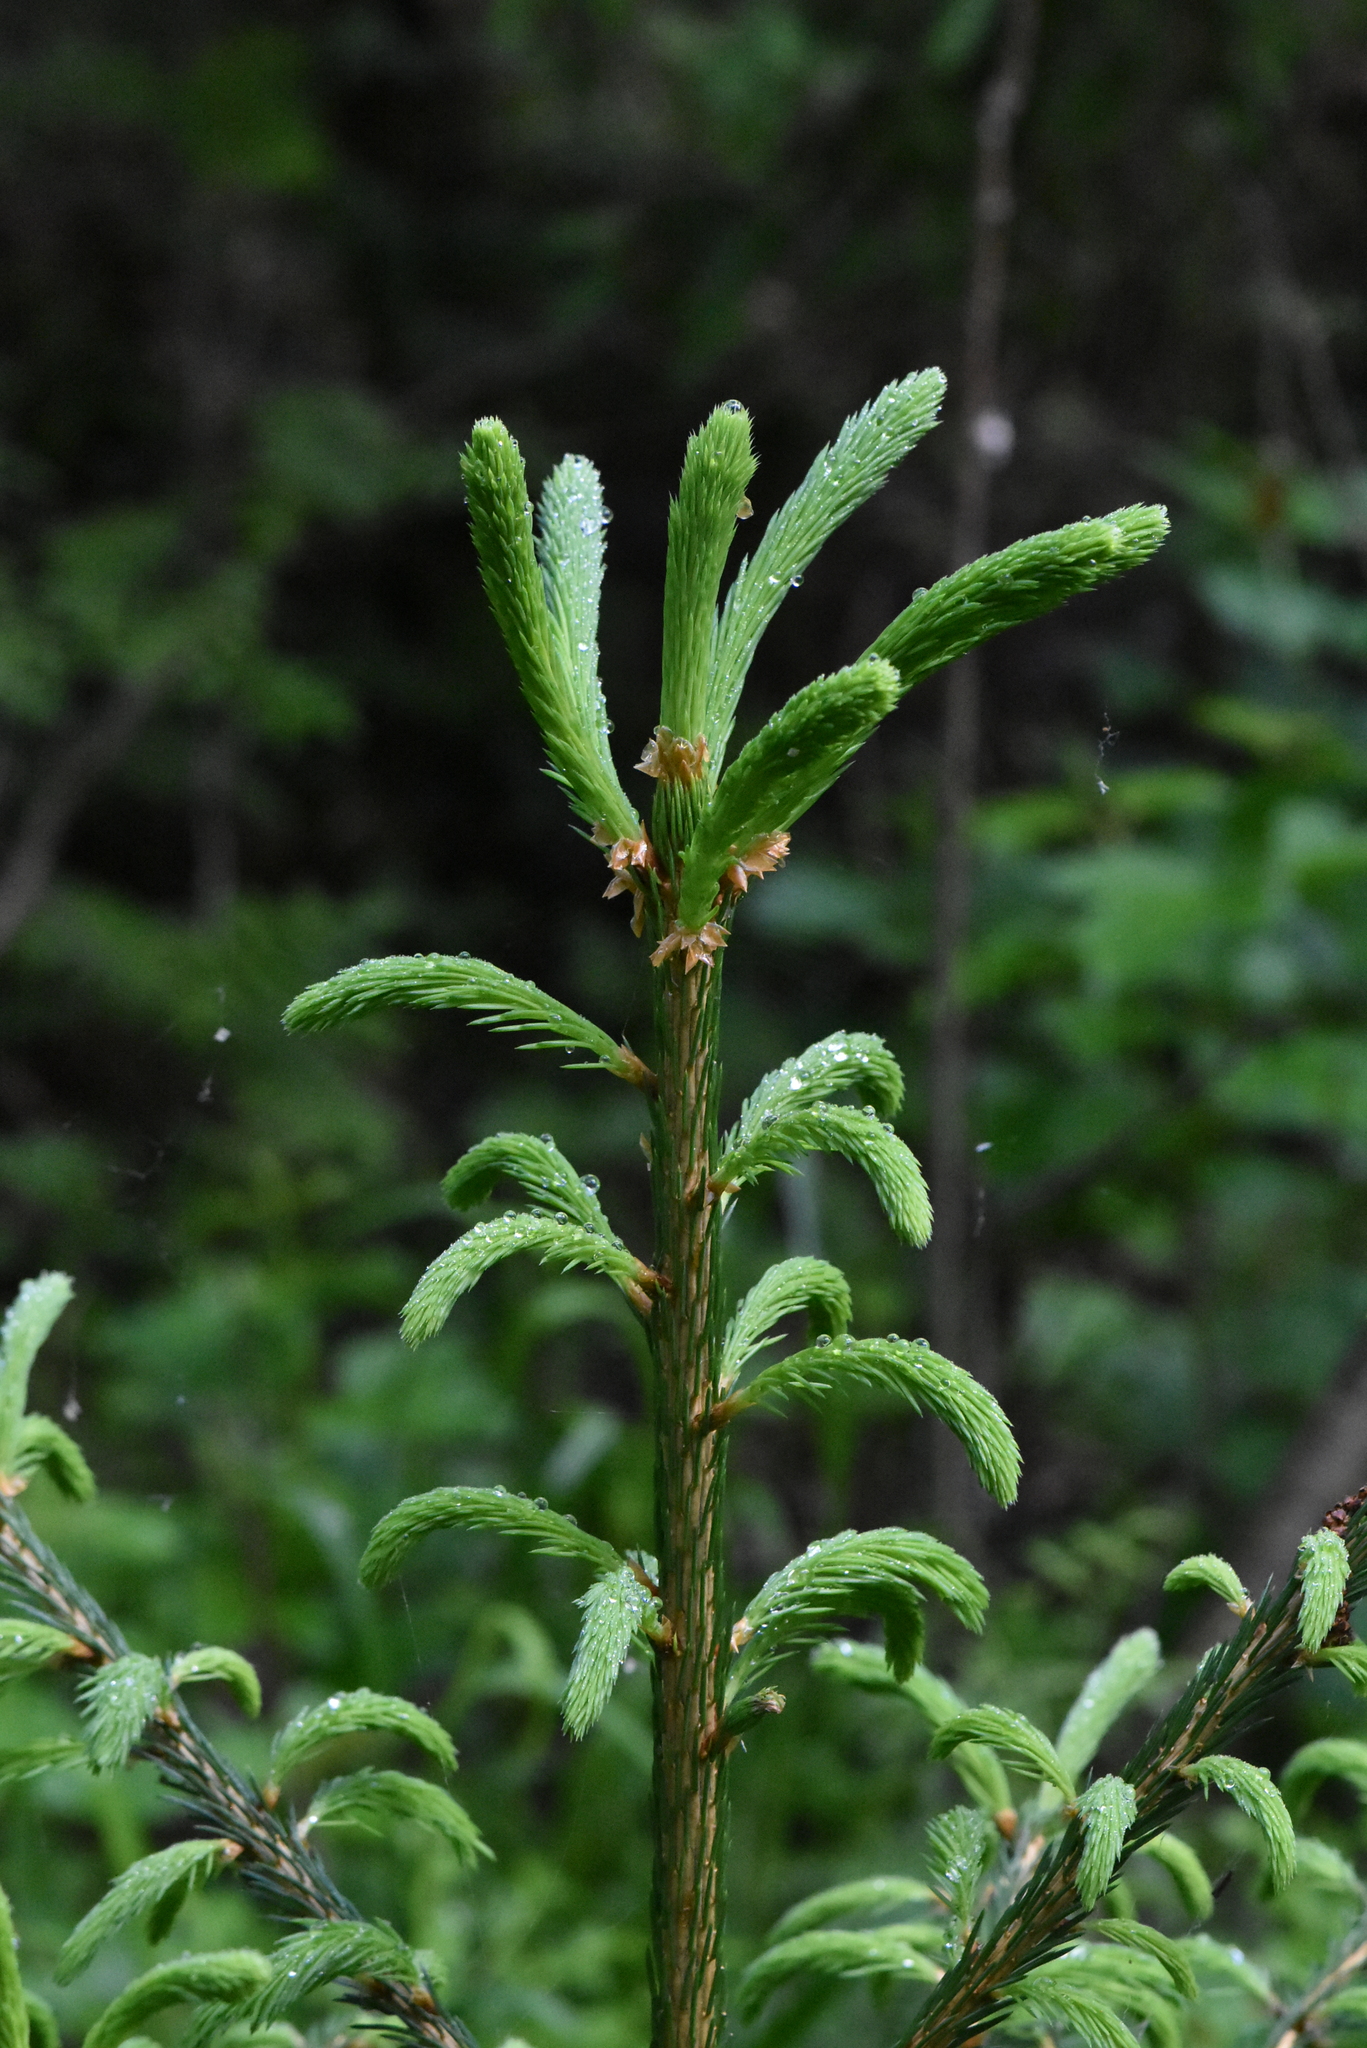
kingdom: Plantae
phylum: Tracheophyta
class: Pinopsida
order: Pinales
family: Pinaceae
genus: Picea
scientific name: Picea abies
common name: Norway spruce
